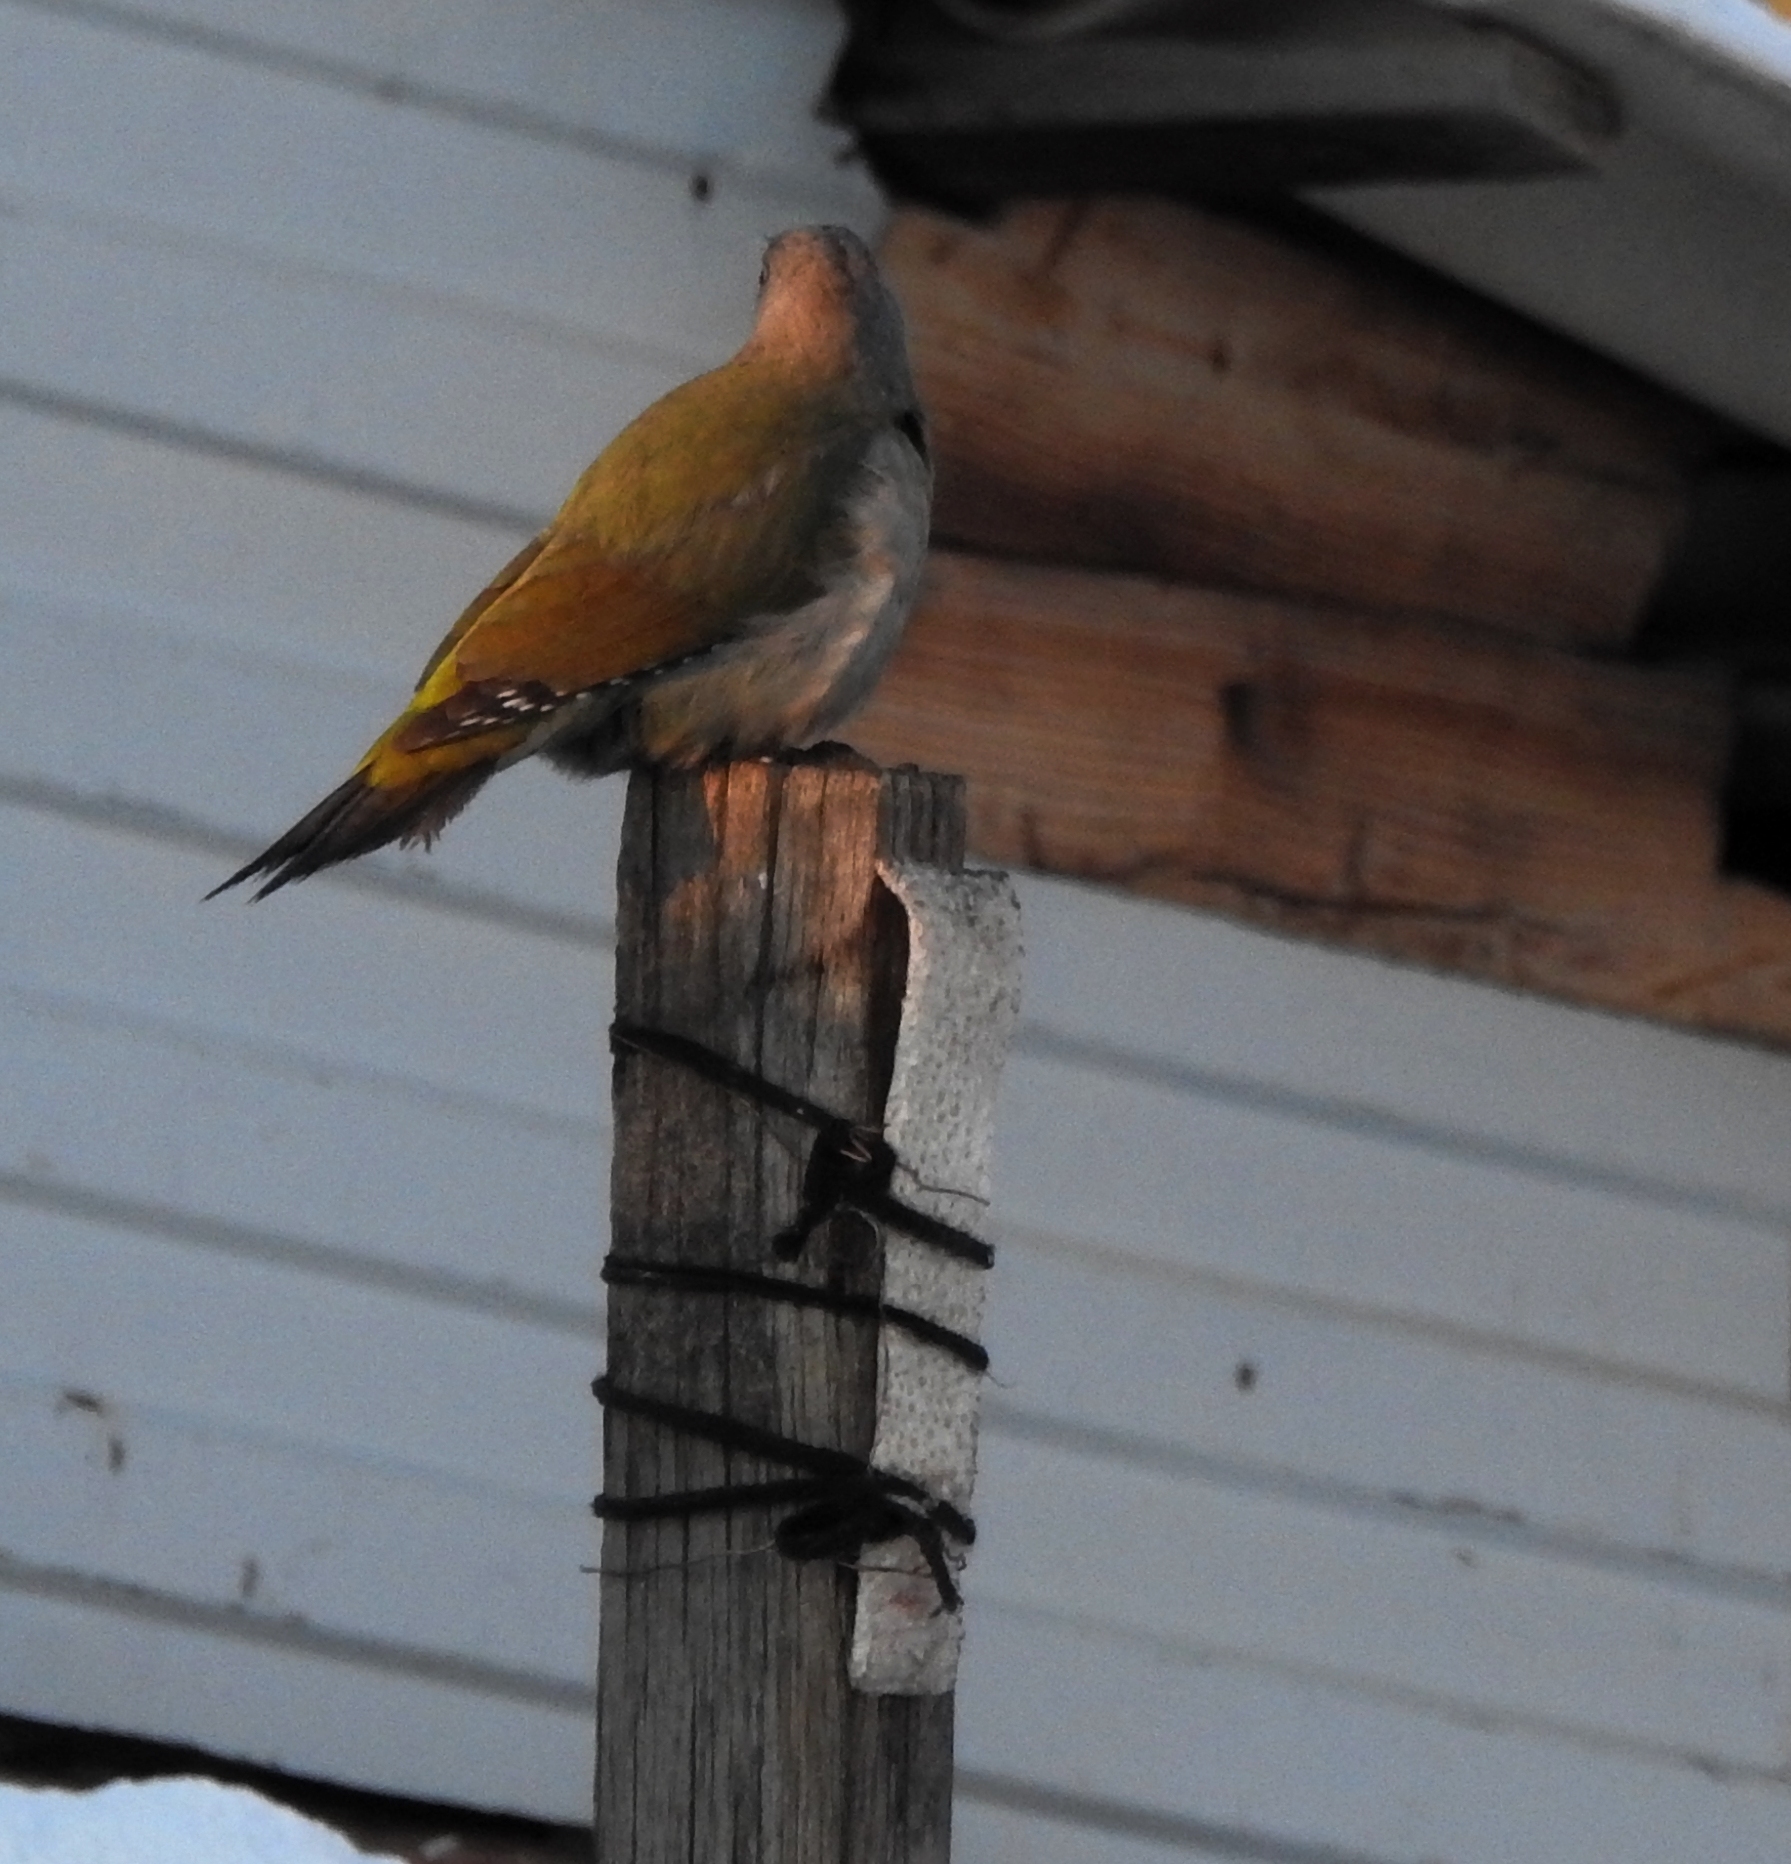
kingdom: Animalia
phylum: Chordata
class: Aves
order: Piciformes
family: Picidae
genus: Picus
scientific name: Picus canus
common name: Grey-headed woodpecker
